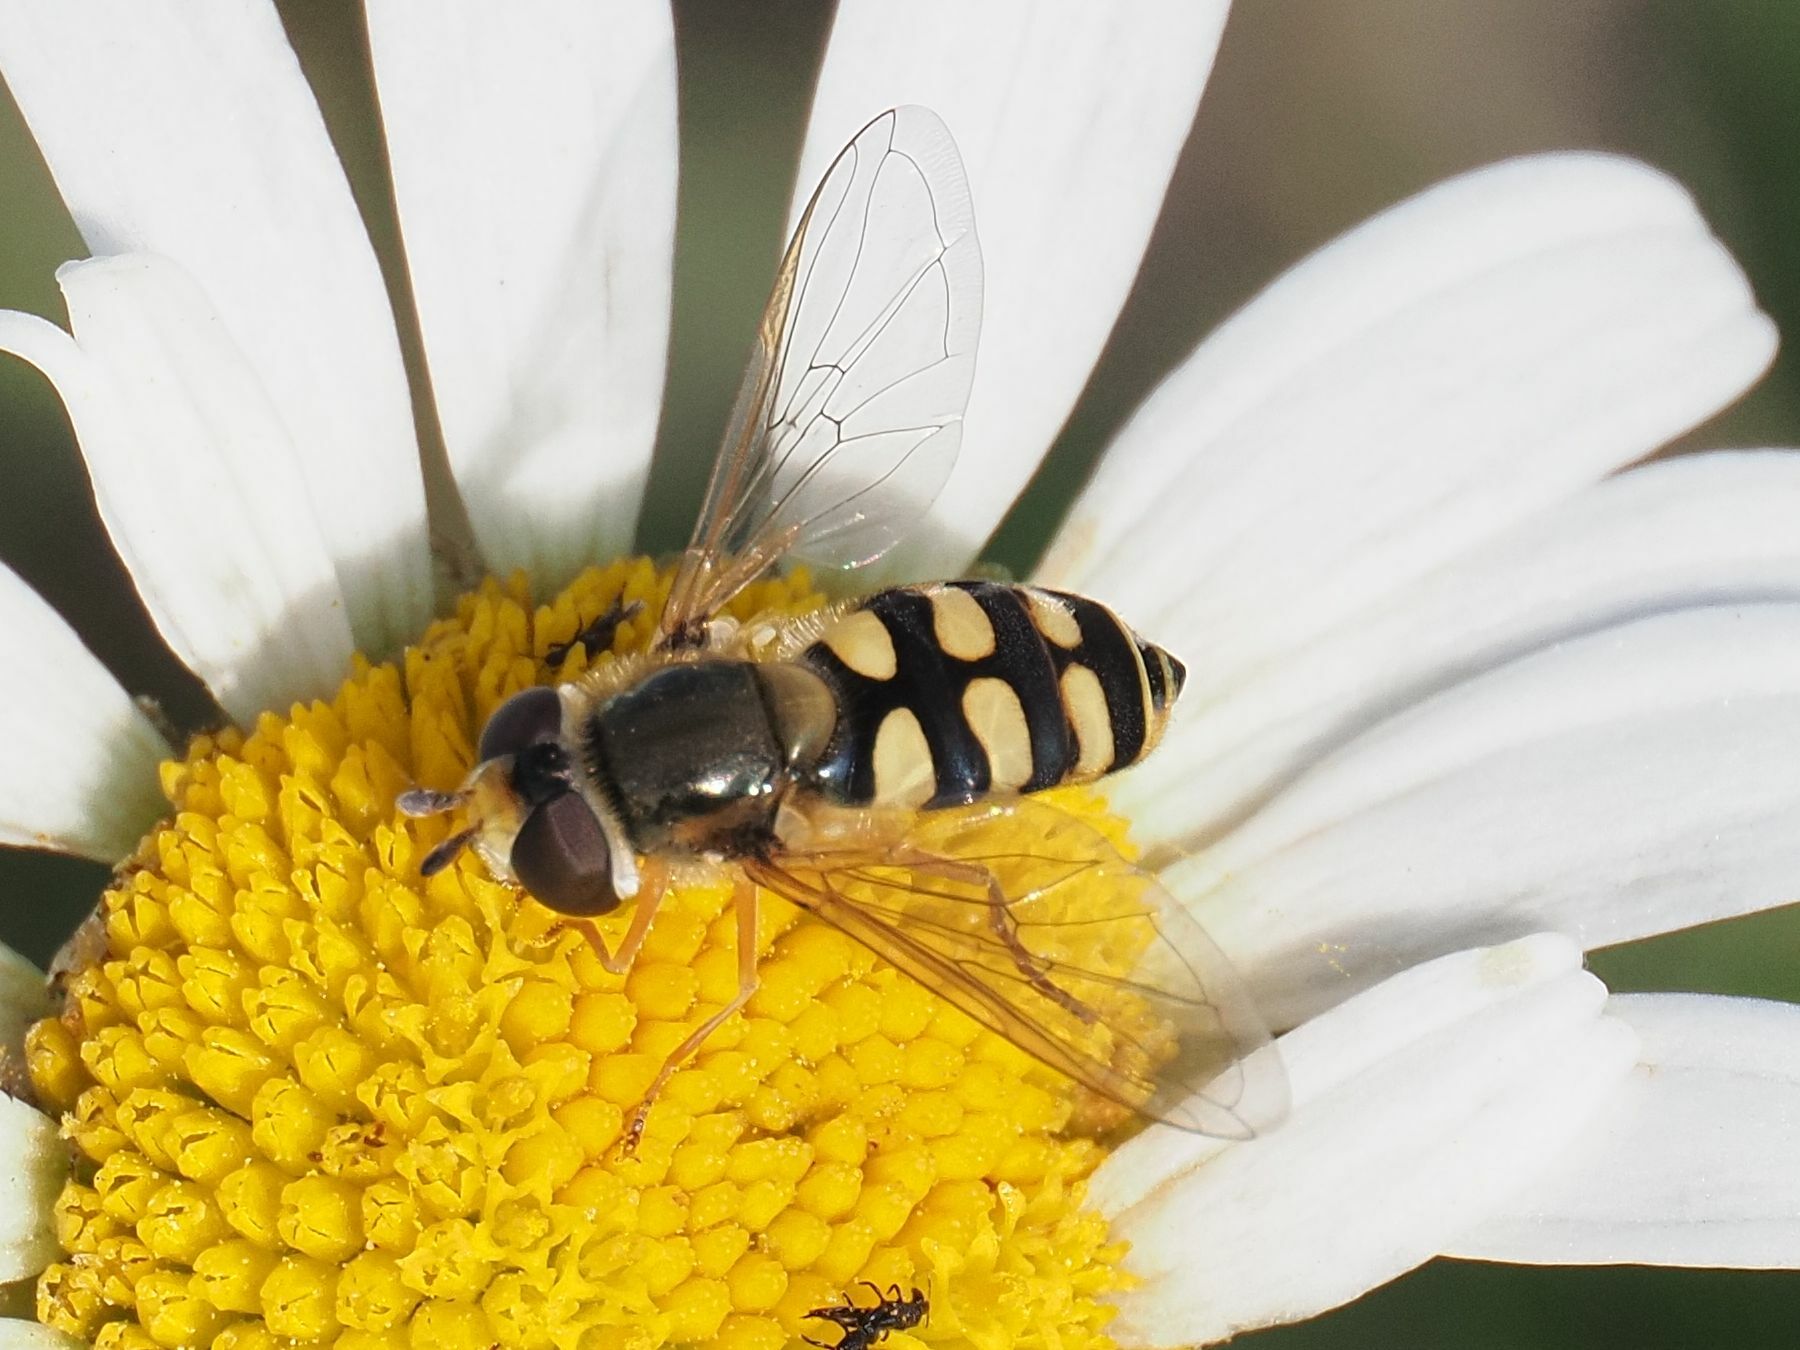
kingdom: Animalia
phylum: Arthropoda
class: Insecta
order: Diptera
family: Syrphidae
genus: Eupeodes
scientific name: Eupeodes corollae
